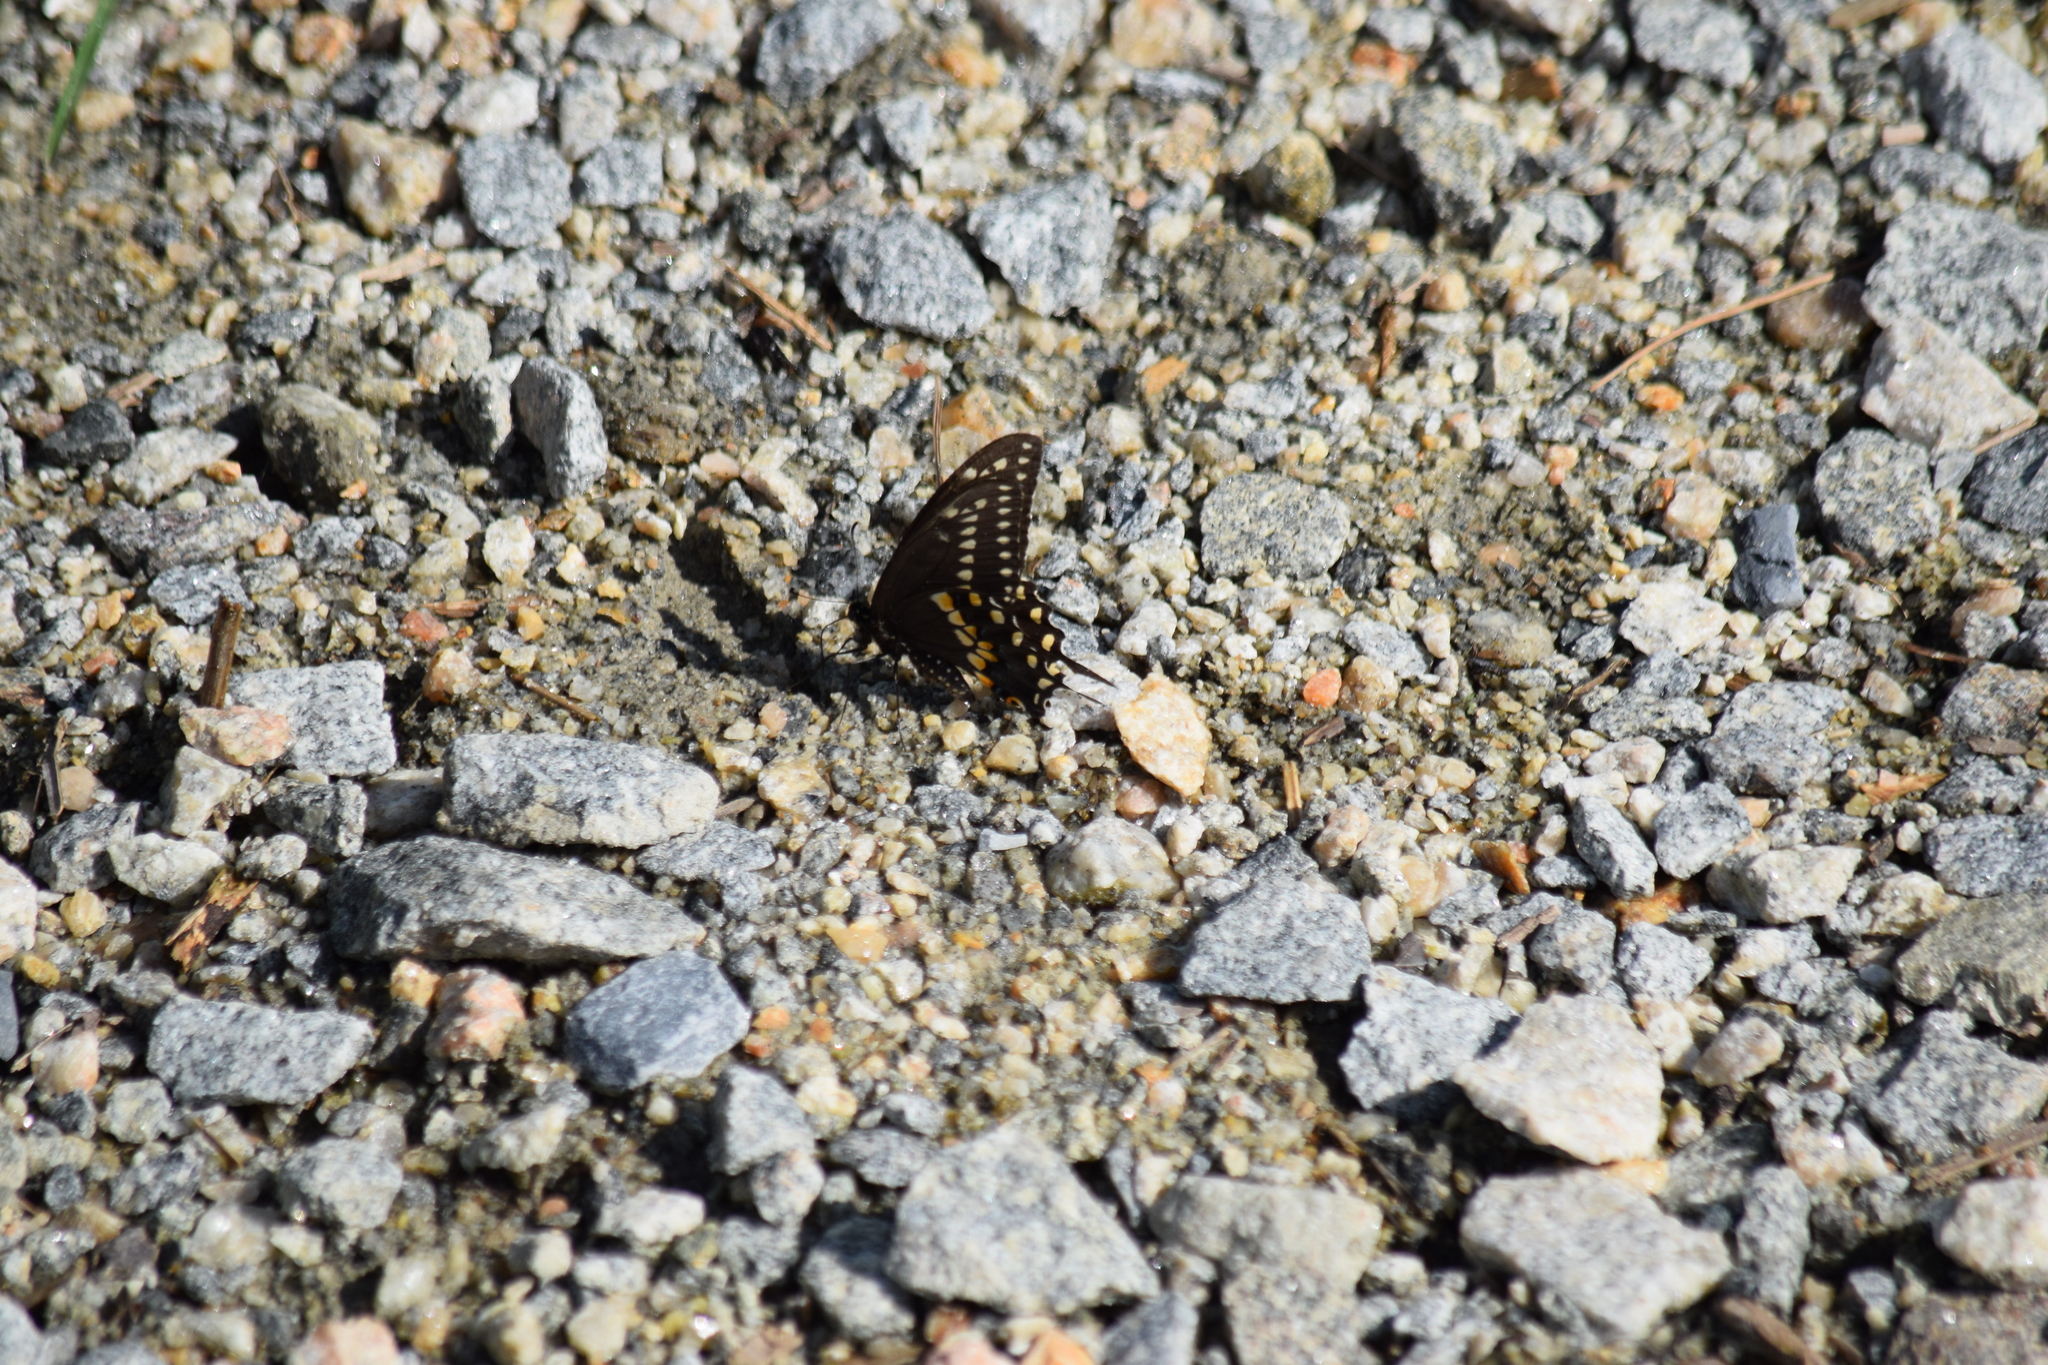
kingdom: Animalia
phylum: Arthropoda
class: Insecta
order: Lepidoptera
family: Papilionidae
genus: Papilio
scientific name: Papilio polyxenes
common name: Black swallowtail
